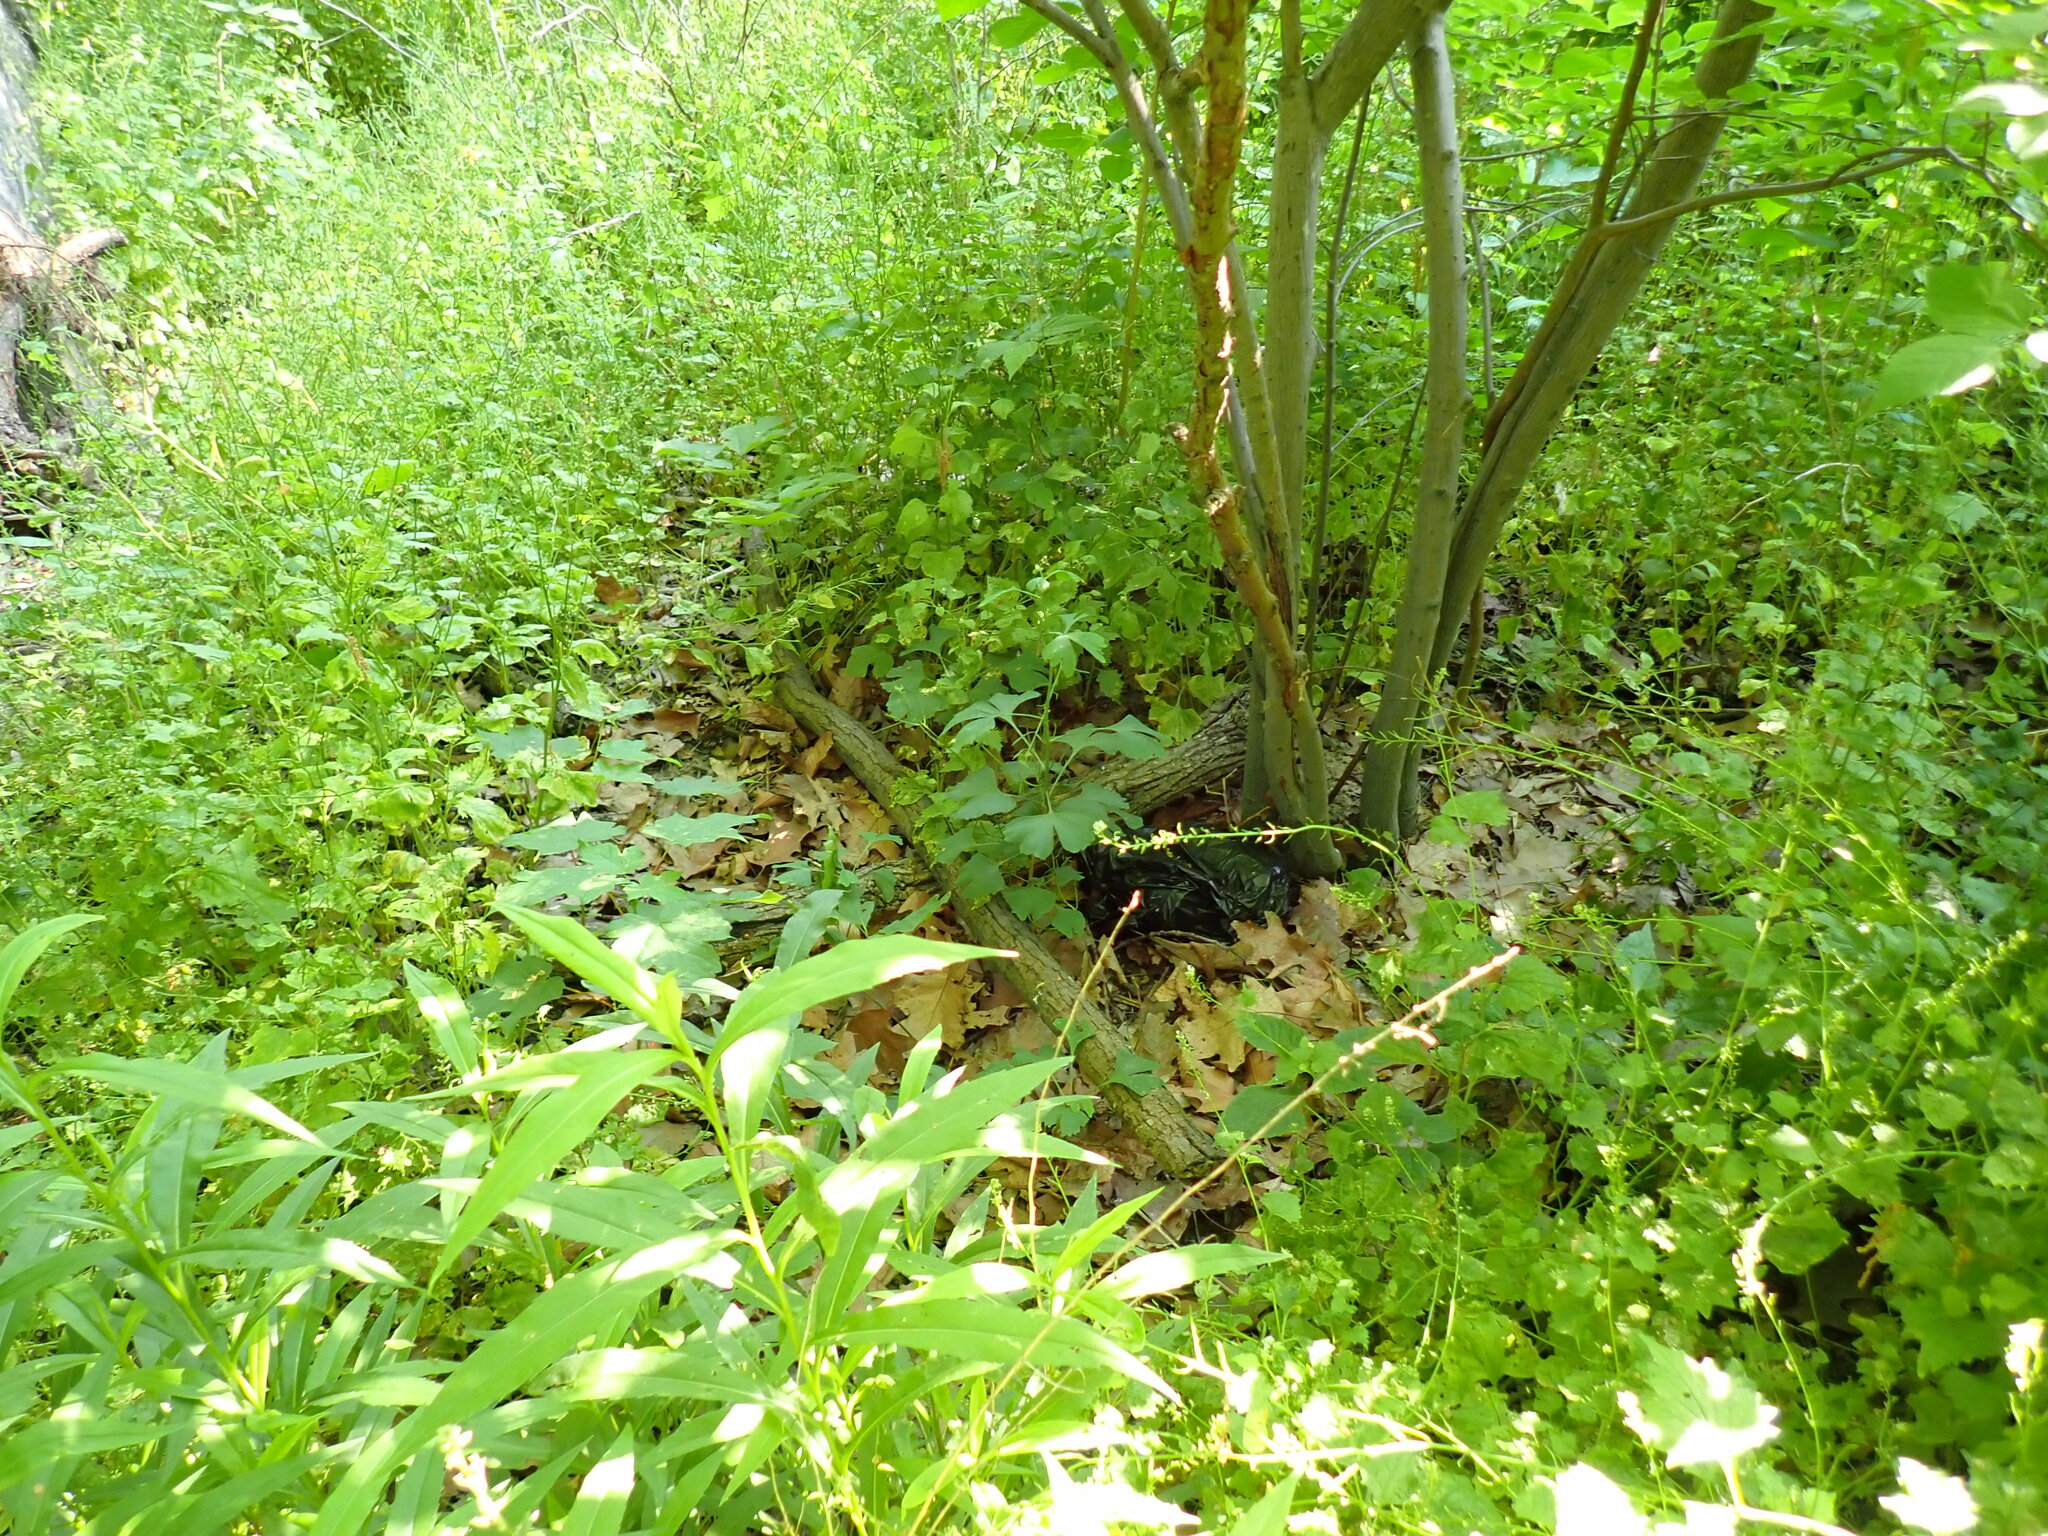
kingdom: Plantae
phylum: Tracheophyta
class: Ginkgoopsida
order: Ginkgoales
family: Ginkgoaceae
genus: Ginkgo
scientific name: Ginkgo biloba
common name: Ginkgo
